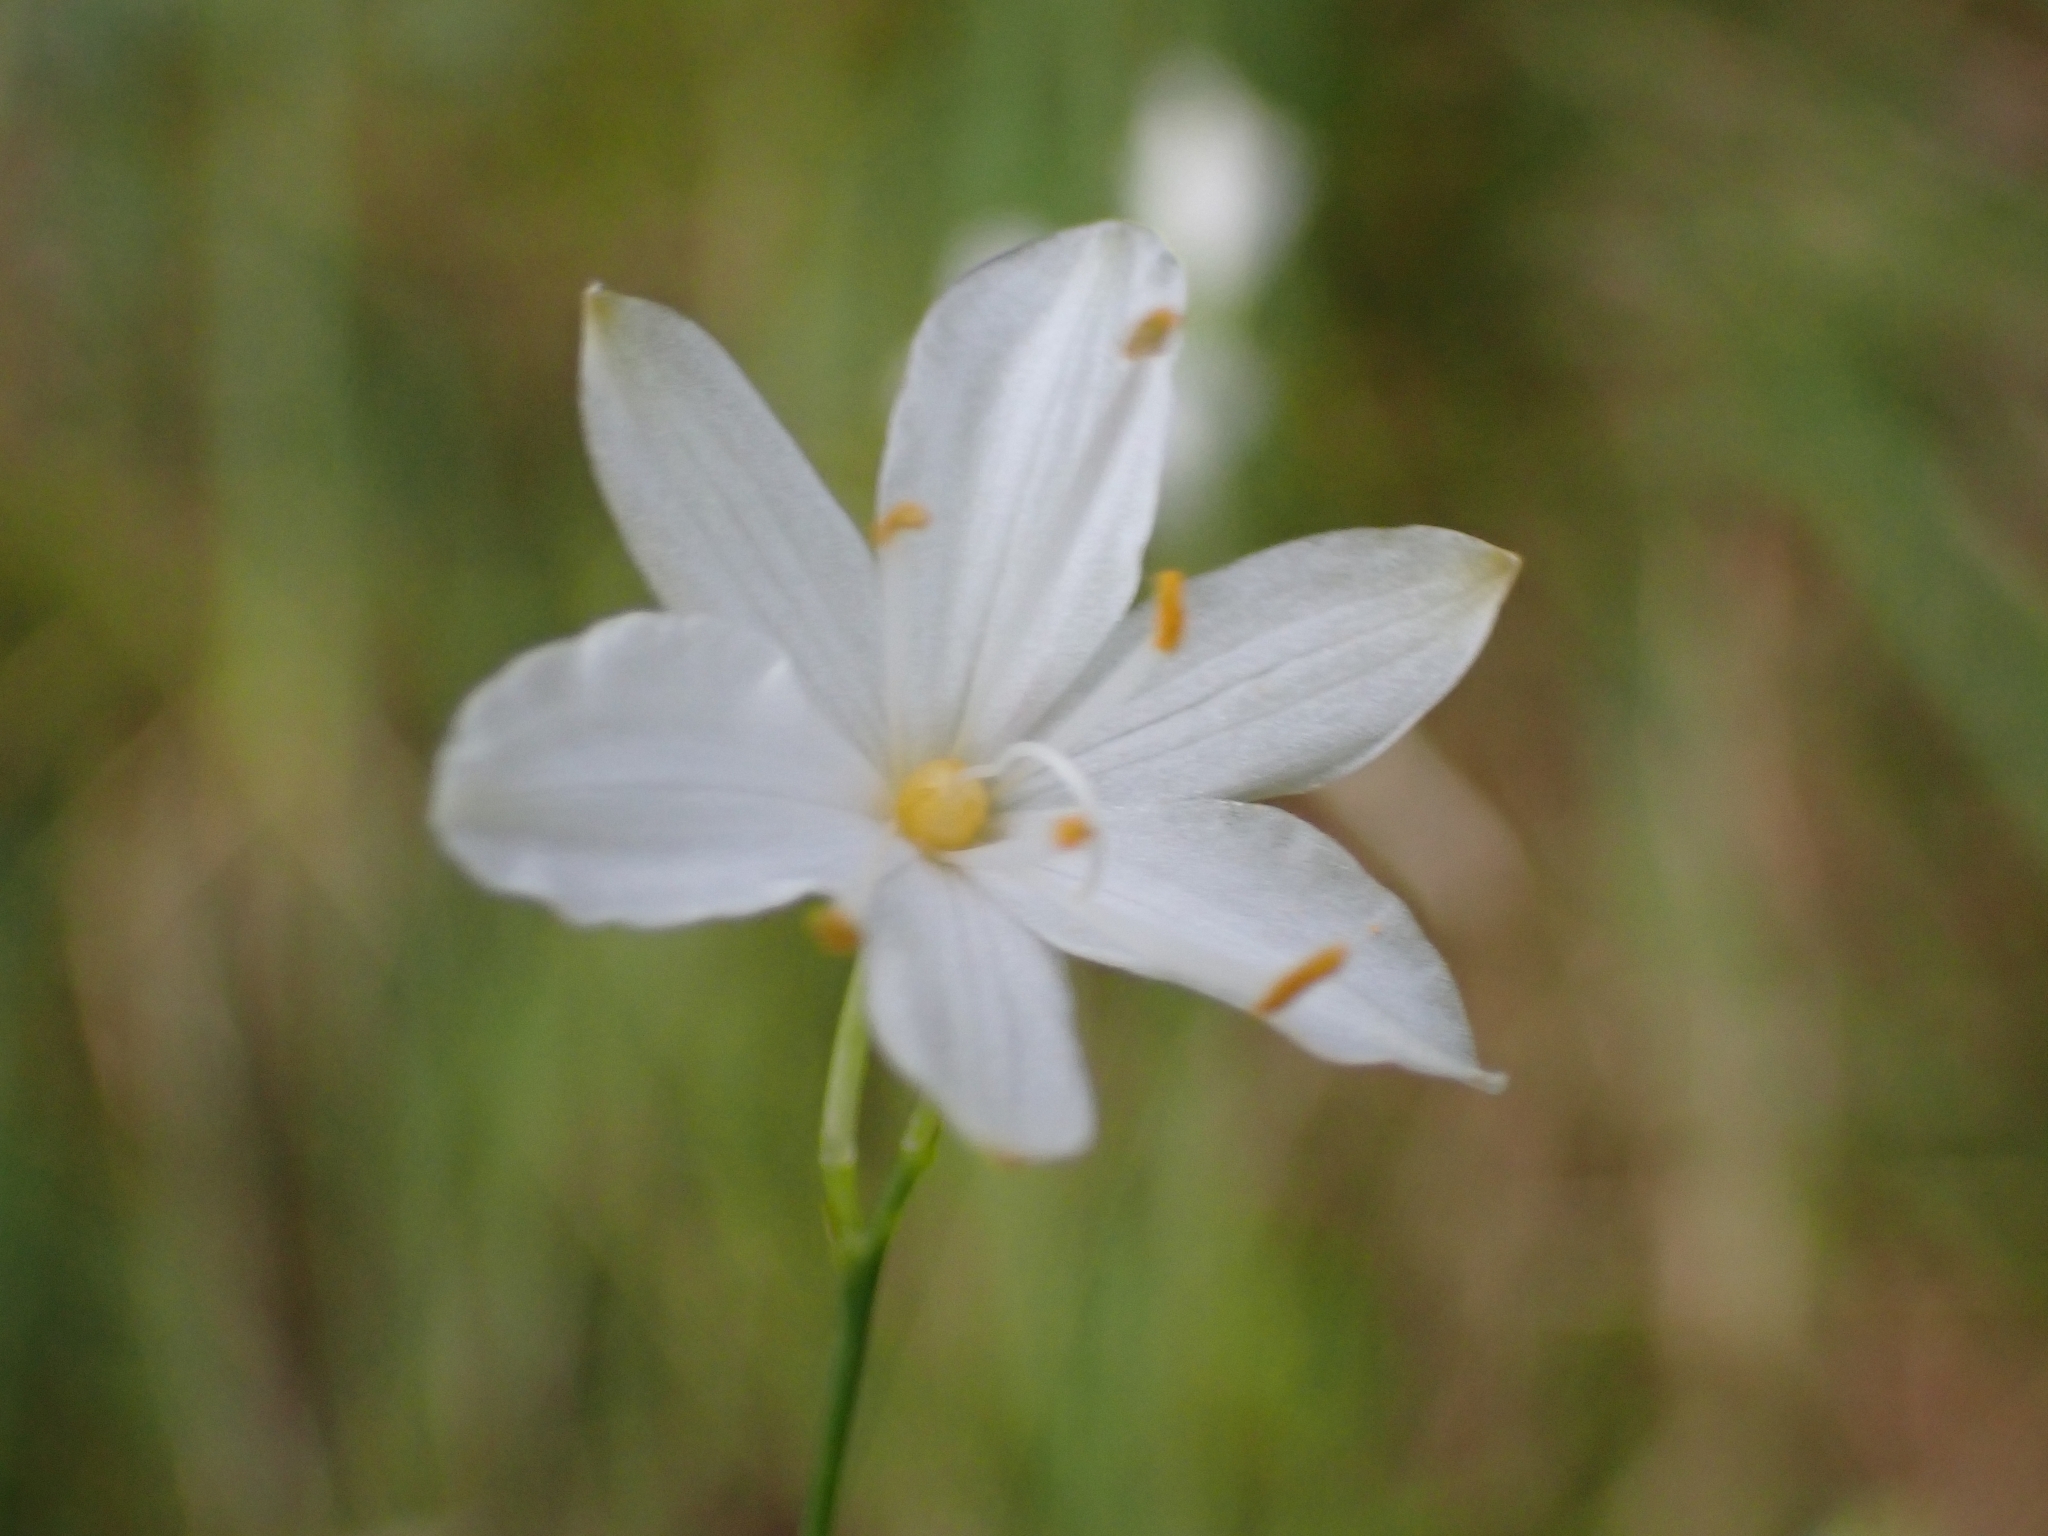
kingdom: Plantae
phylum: Tracheophyta
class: Liliopsida
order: Asparagales
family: Asparagaceae
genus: Anthericum
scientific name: Anthericum ramosum
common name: Branched st. bernard's-lily
